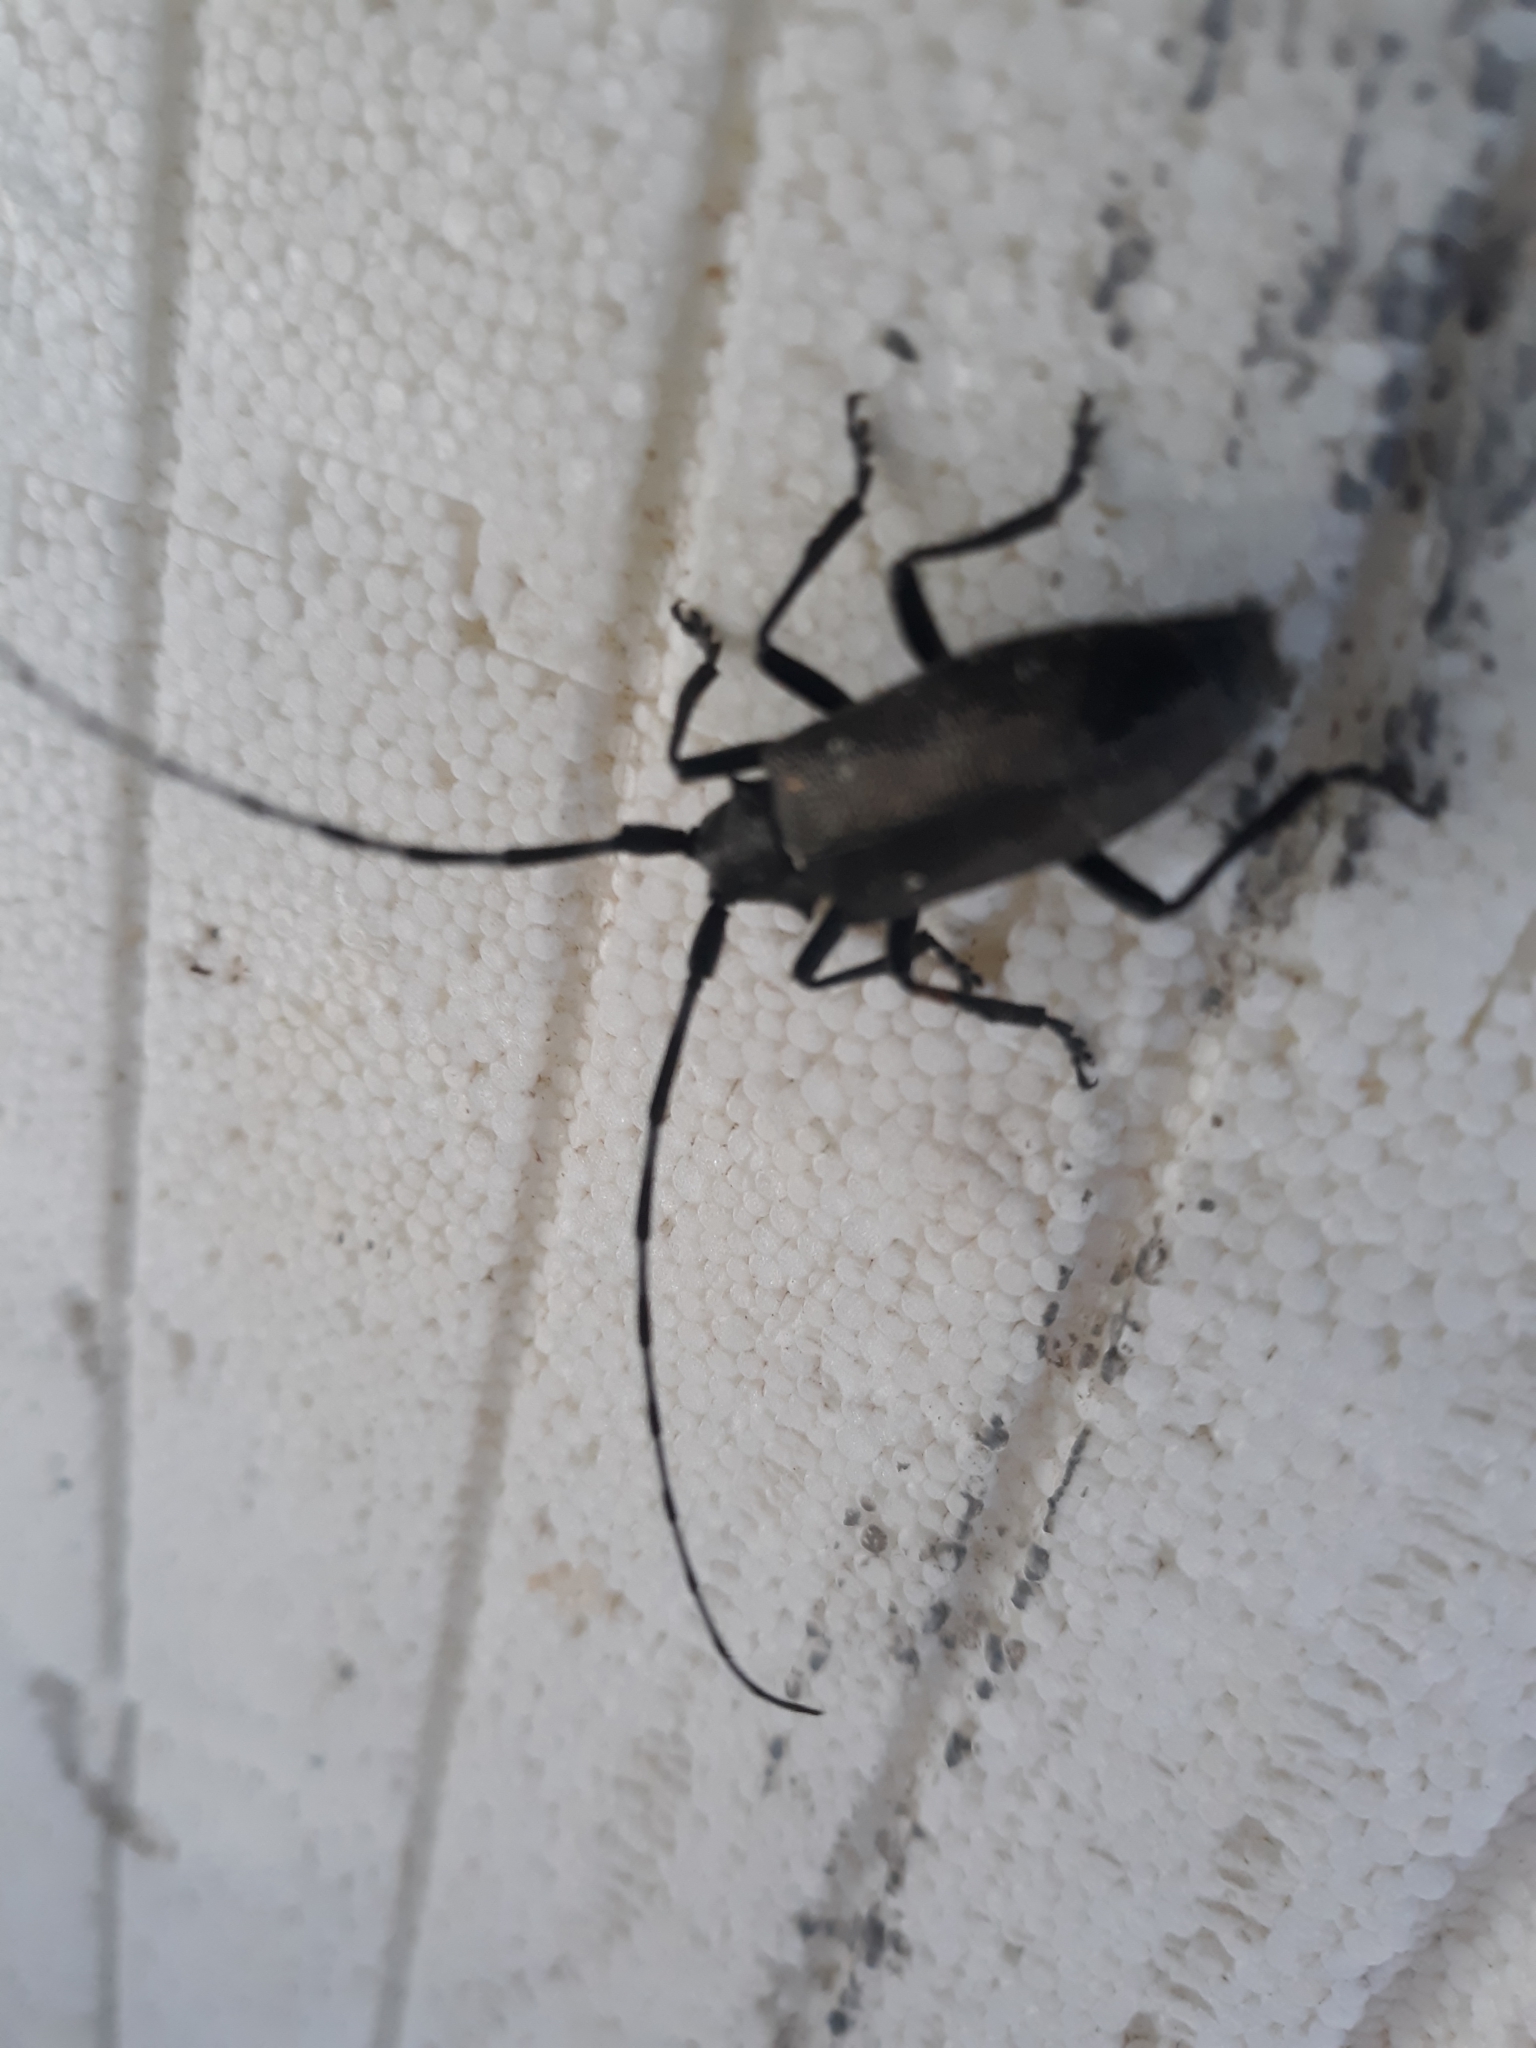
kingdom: Animalia
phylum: Arthropoda
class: Insecta
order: Coleoptera
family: Cerambycidae
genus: Monochamus
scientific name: Monochamus scutellatus
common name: White-spotted sawyer beetle
